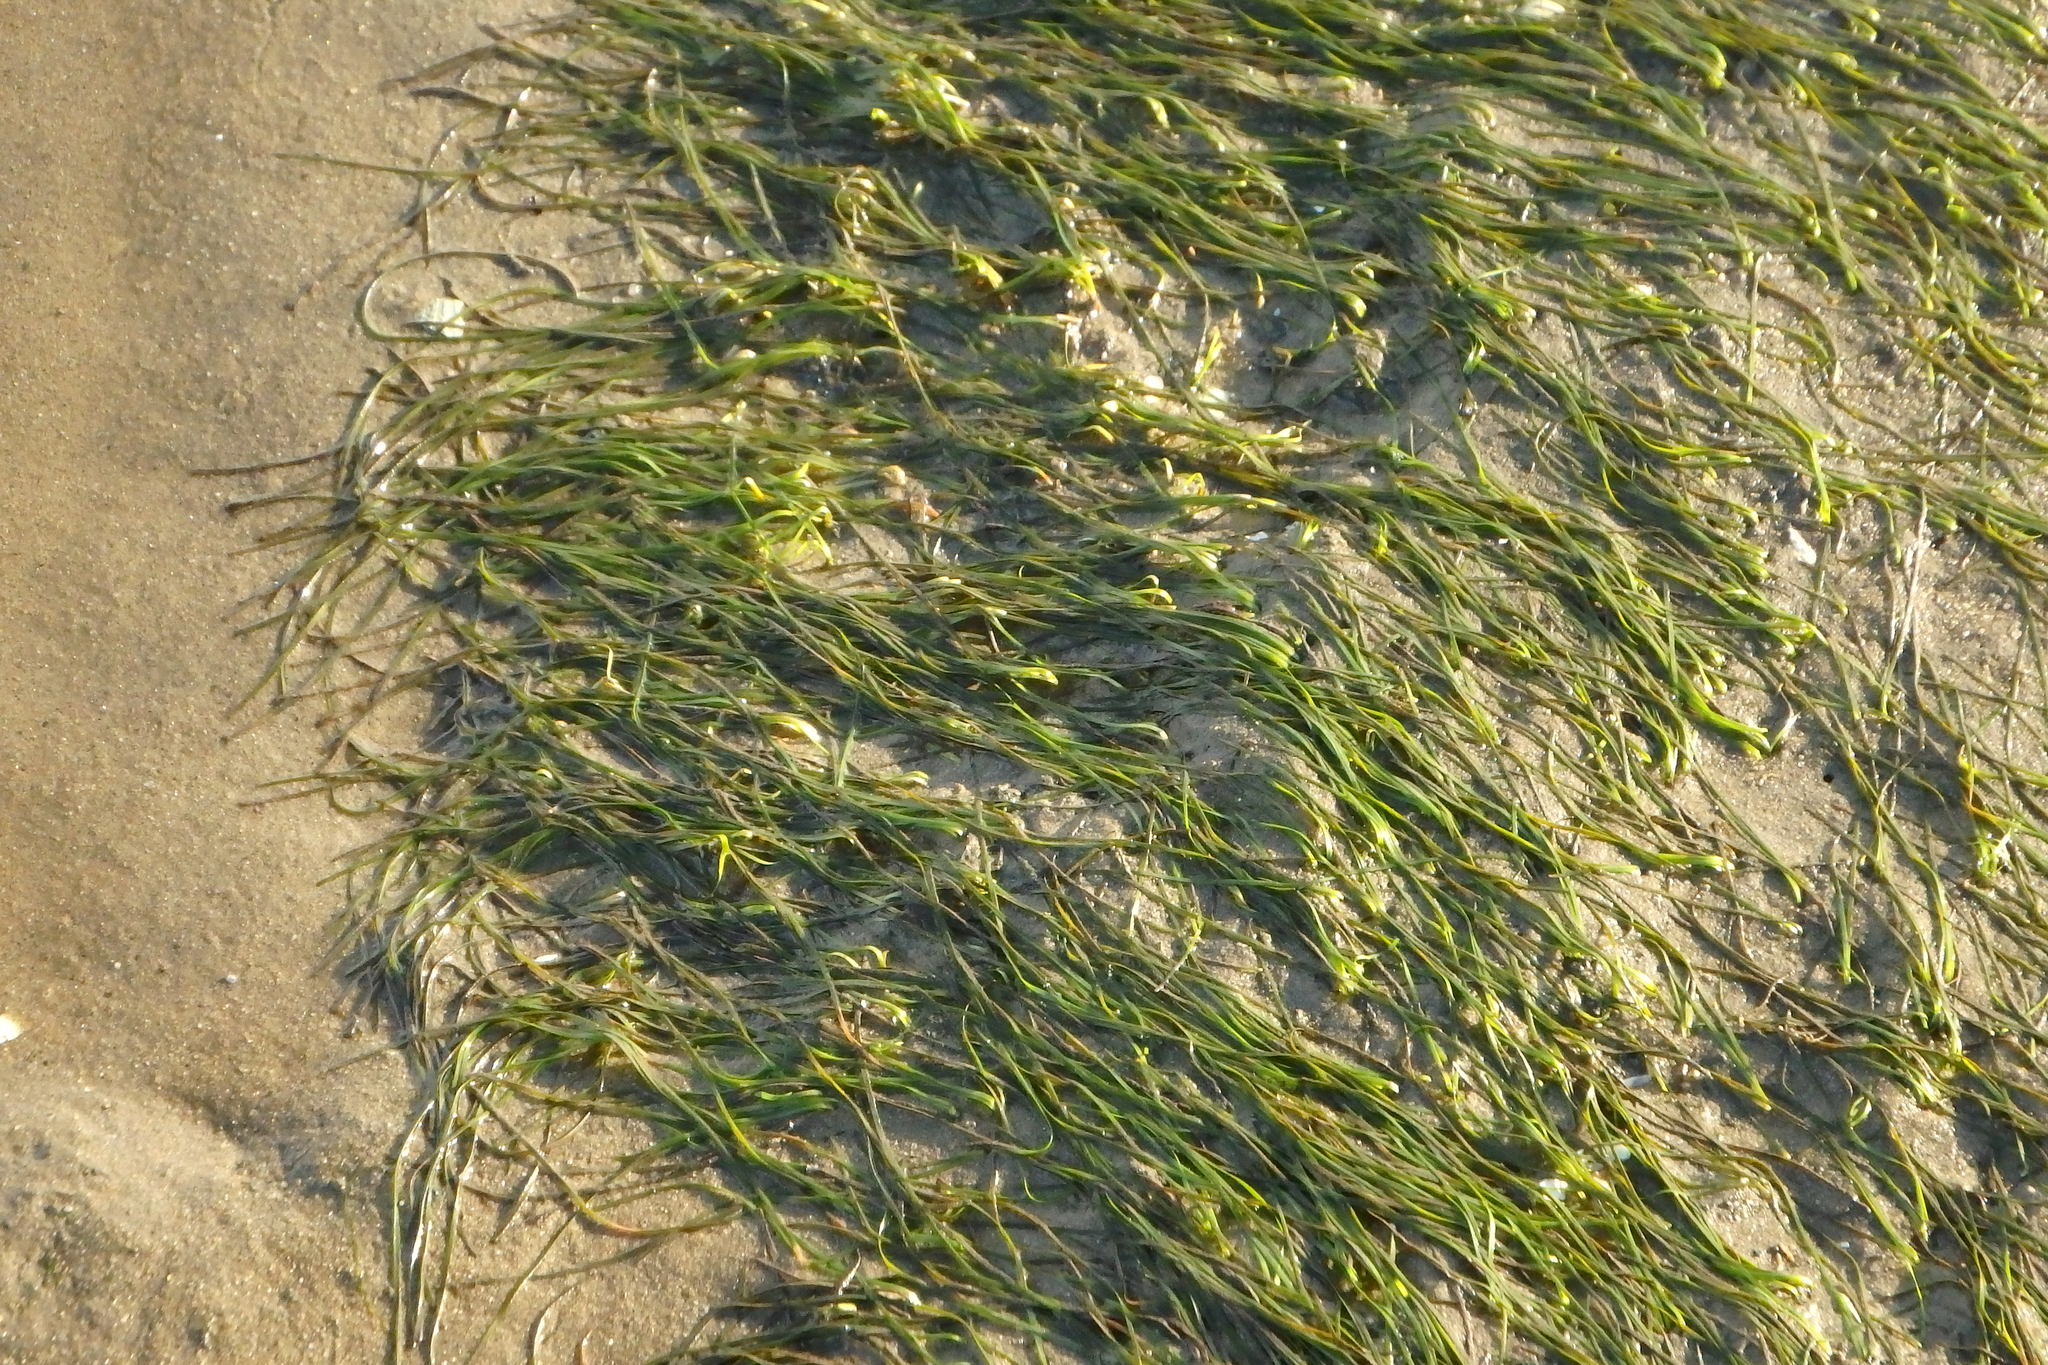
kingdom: Plantae
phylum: Tracheophyta
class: Liliopsida
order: Alismatales
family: Zosteraceae
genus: Zostera
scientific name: Zostera noltii
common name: Dwarf eelgrass
